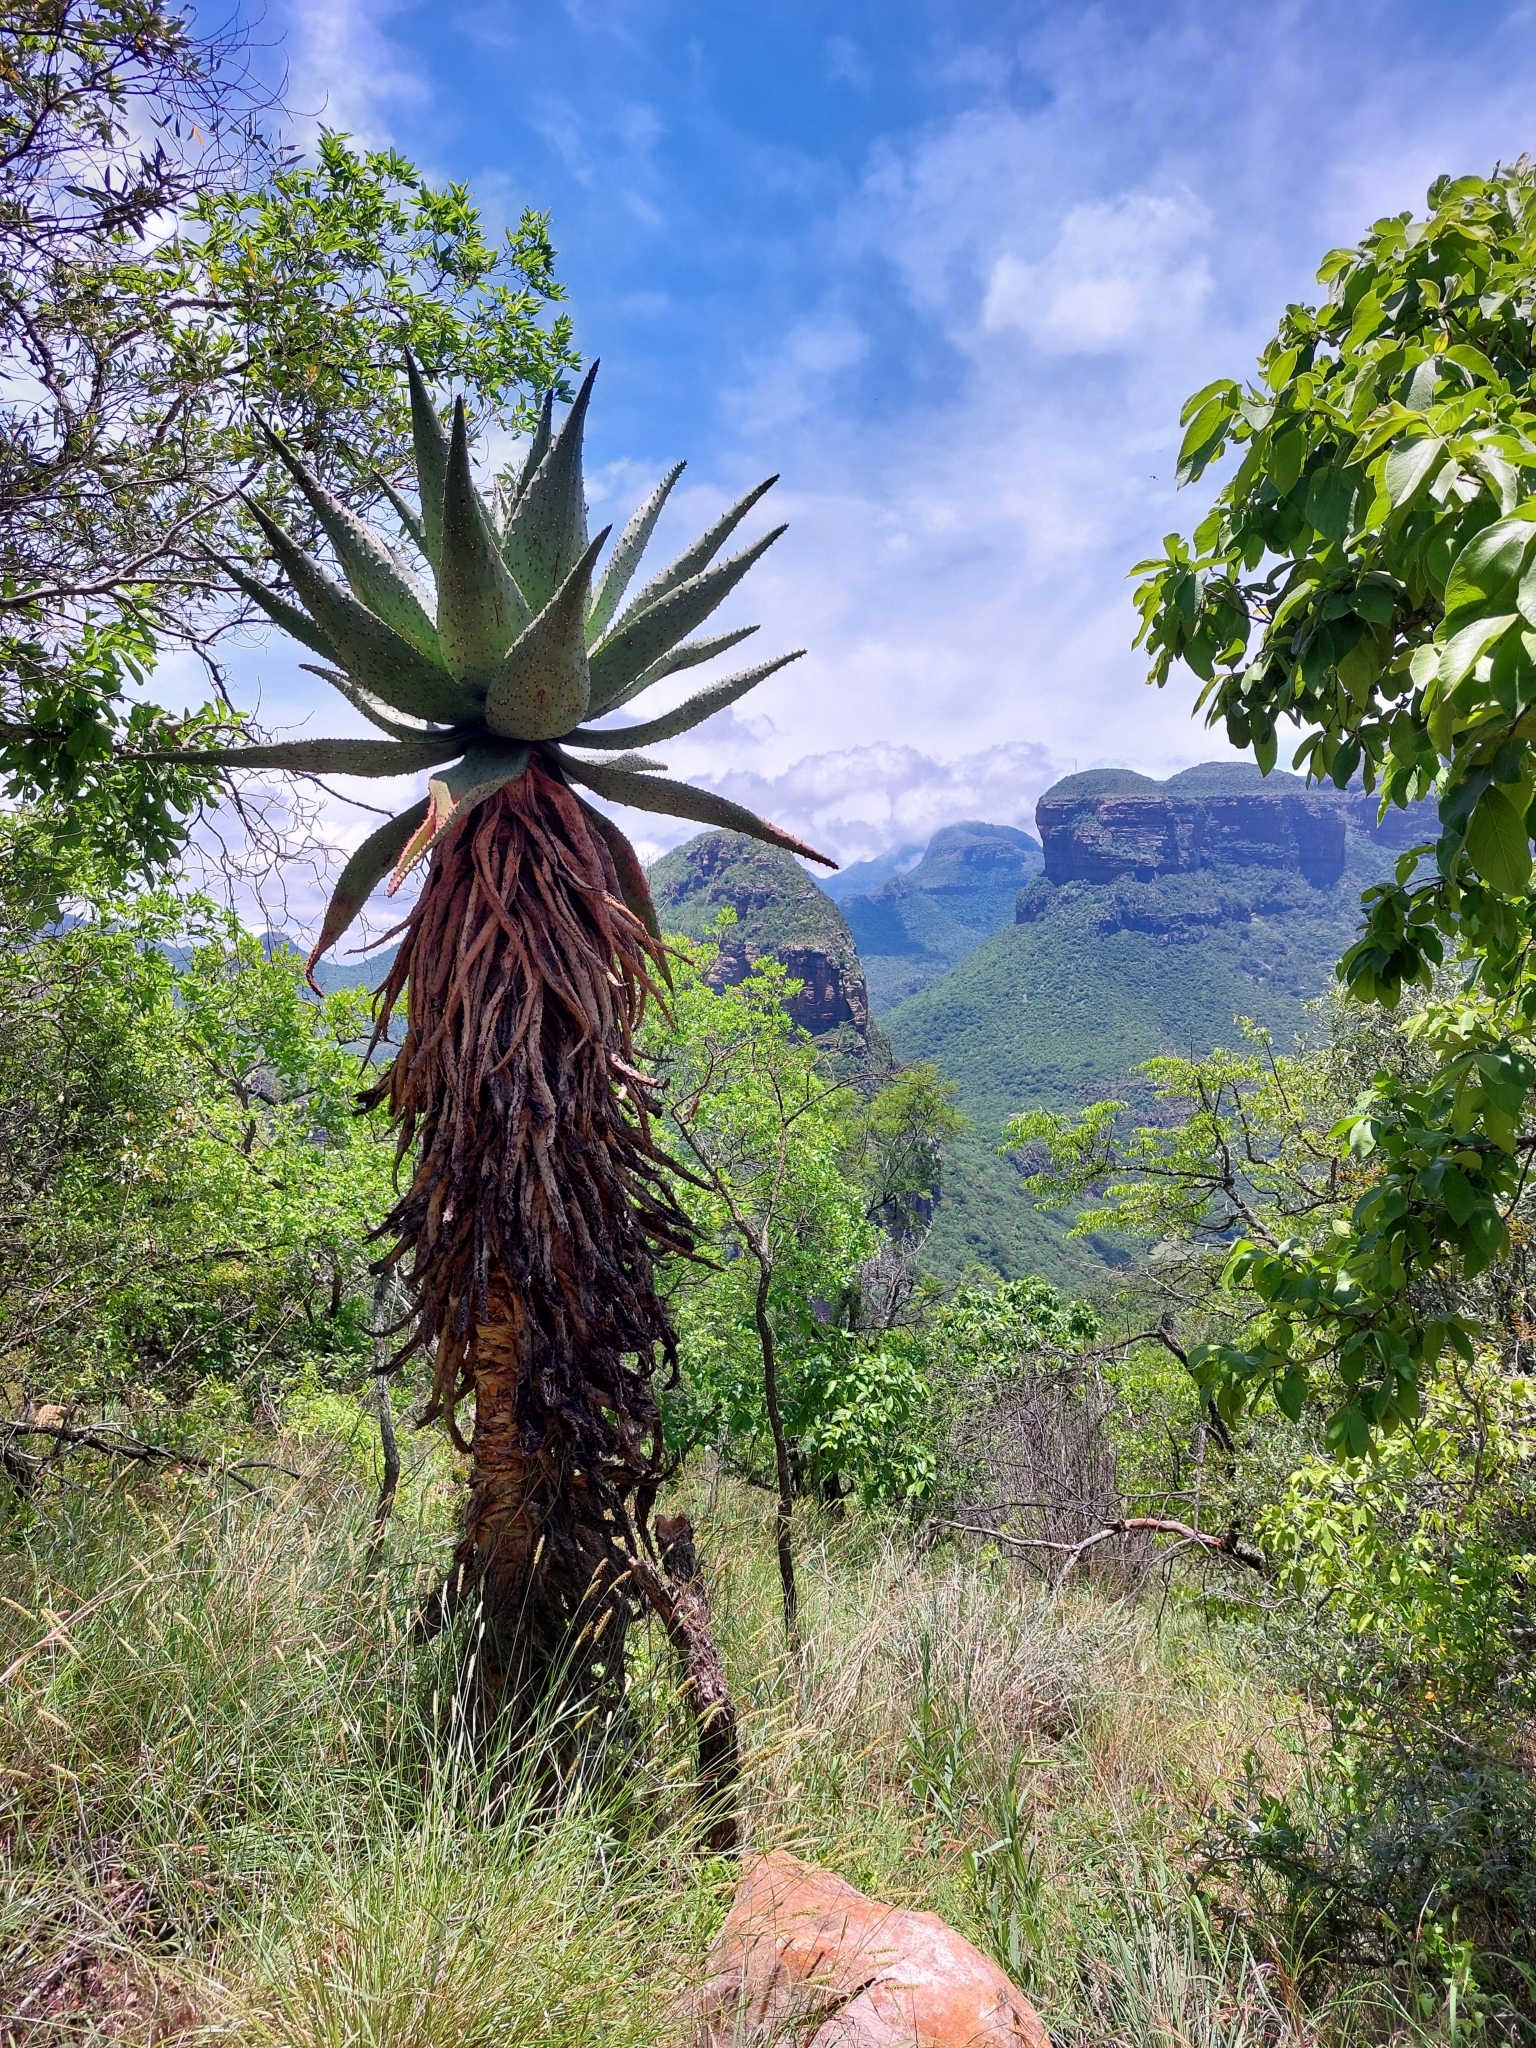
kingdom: Plantae
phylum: Tracheophyta
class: Liliopsida
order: Asparagales
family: Asphodelaceae
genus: Aloe
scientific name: Aloe marlothii
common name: Flat-flowered aloe
